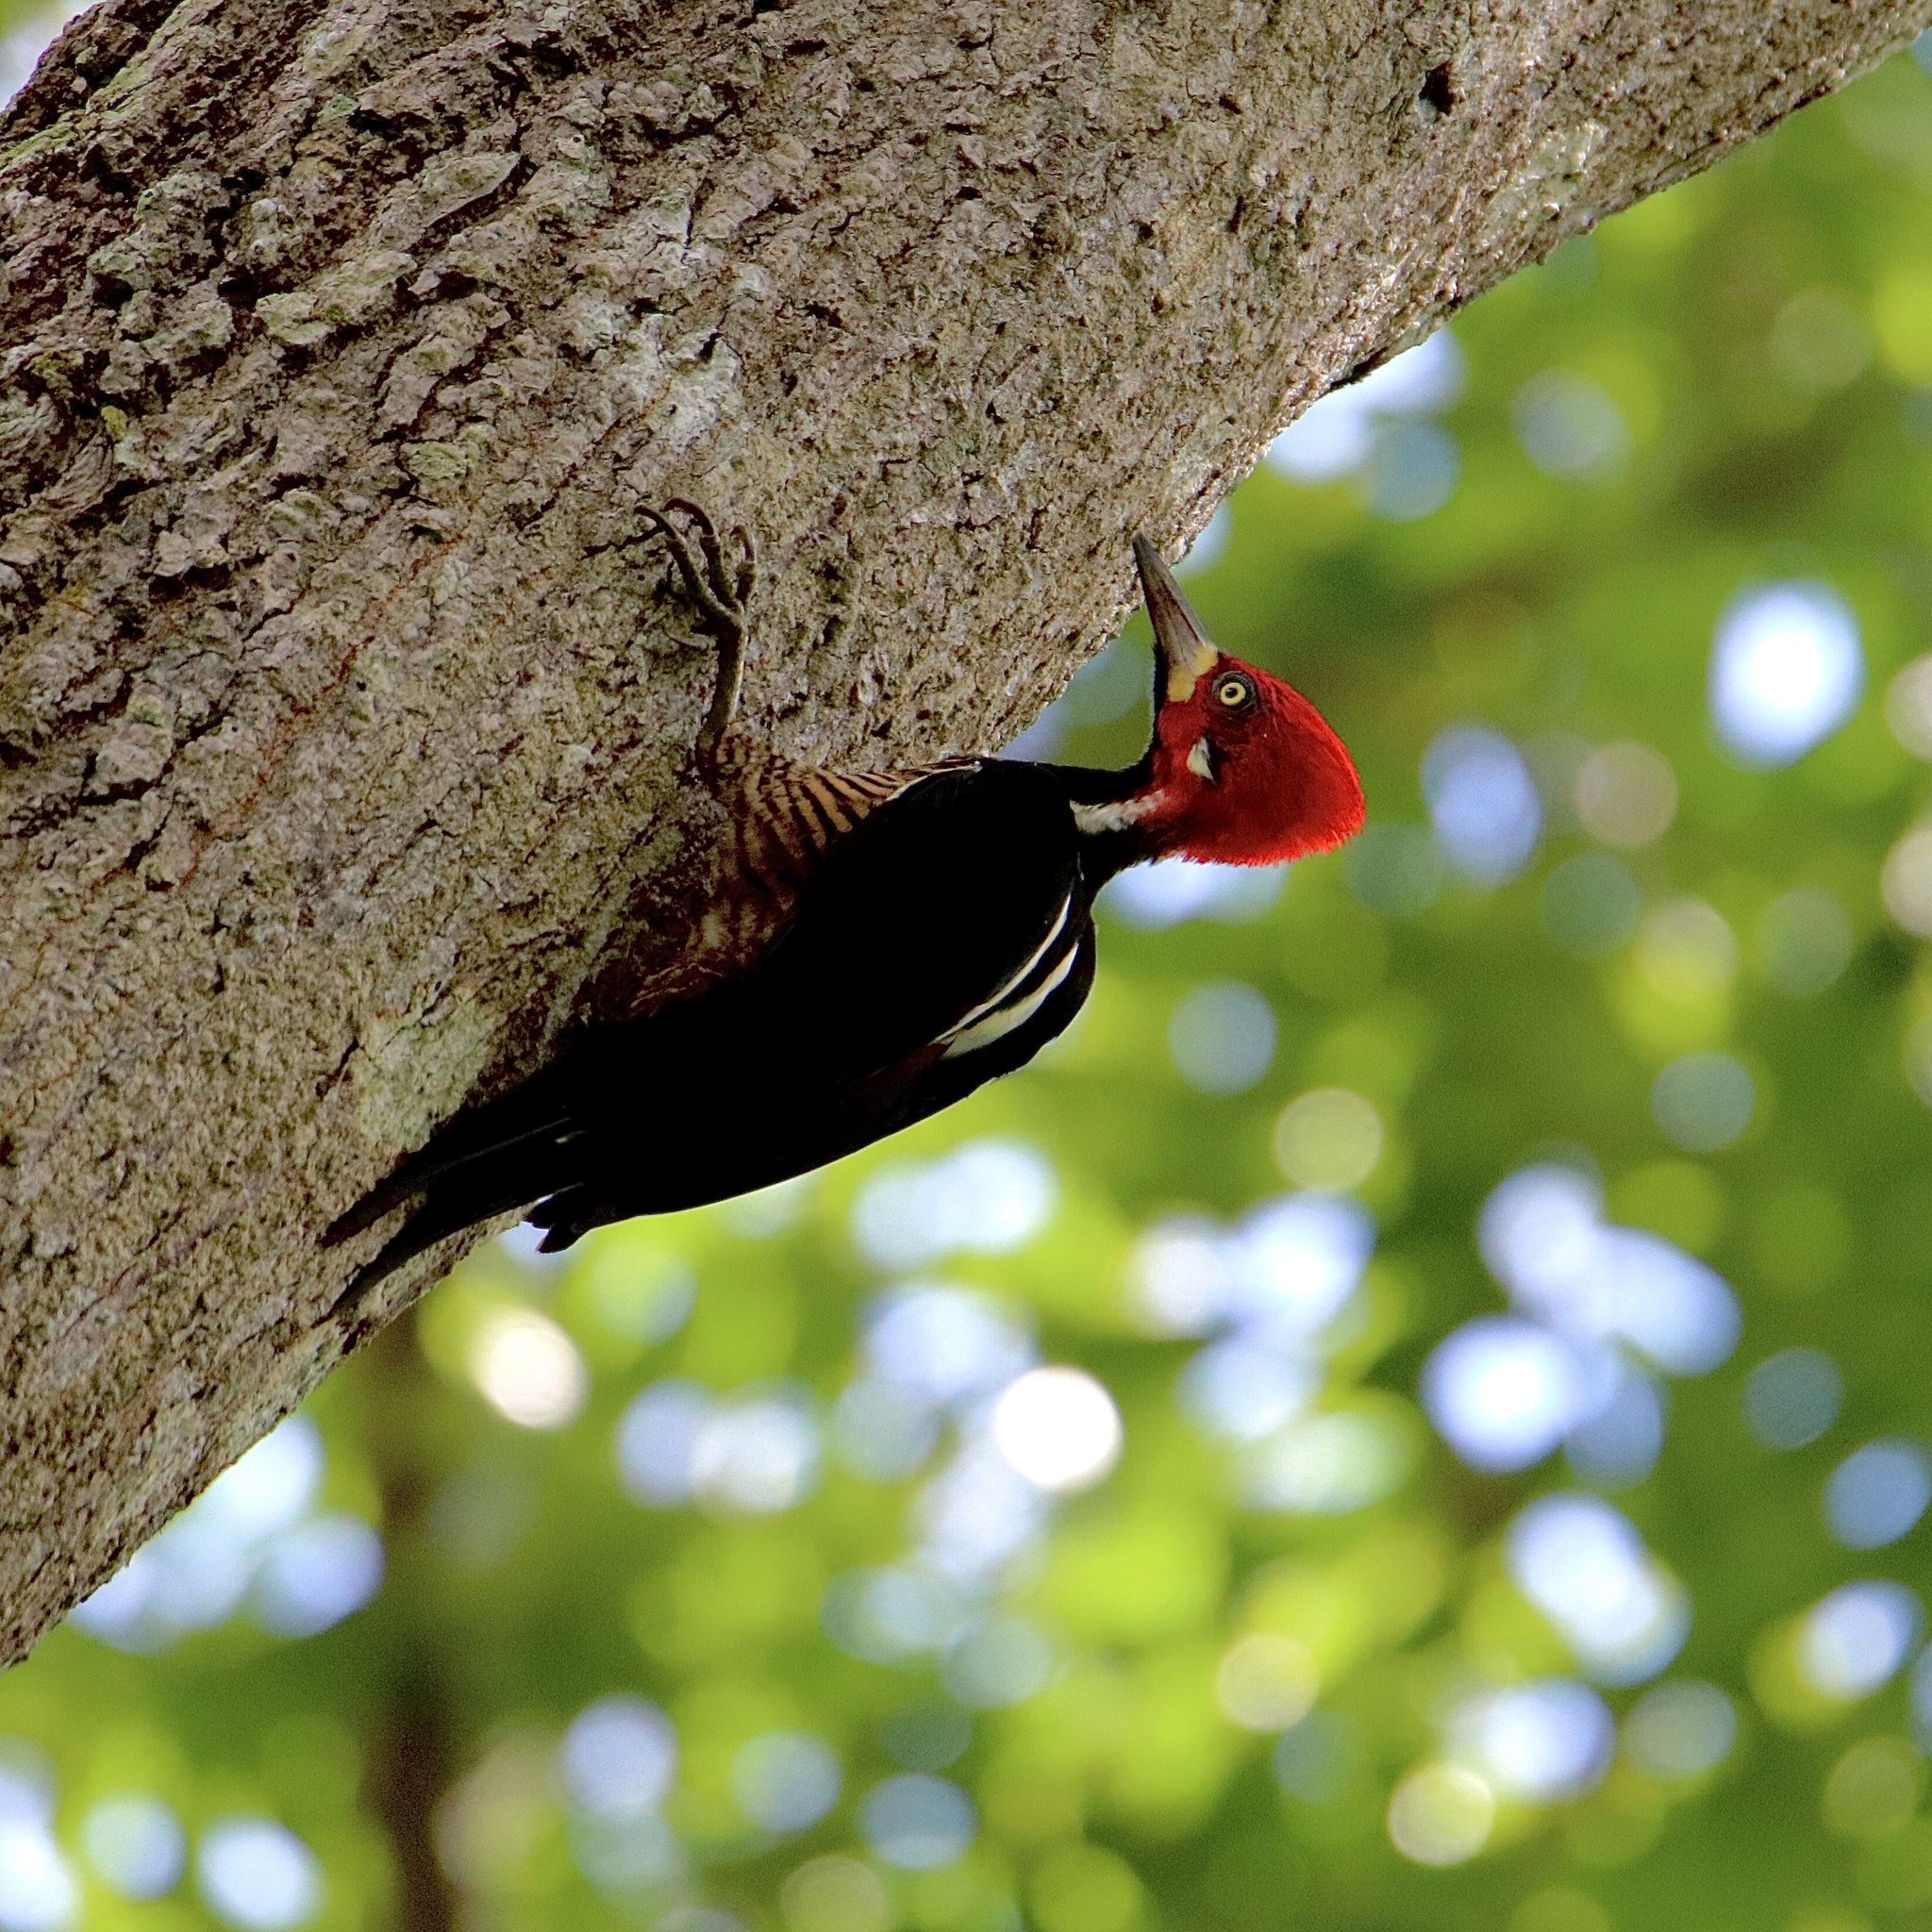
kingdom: Animalia
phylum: Chordata
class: Aves
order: Piciformes
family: Picidae
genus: Campephilus
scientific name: Campephilus melanoleucos
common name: Crimson-crested woodpecker
